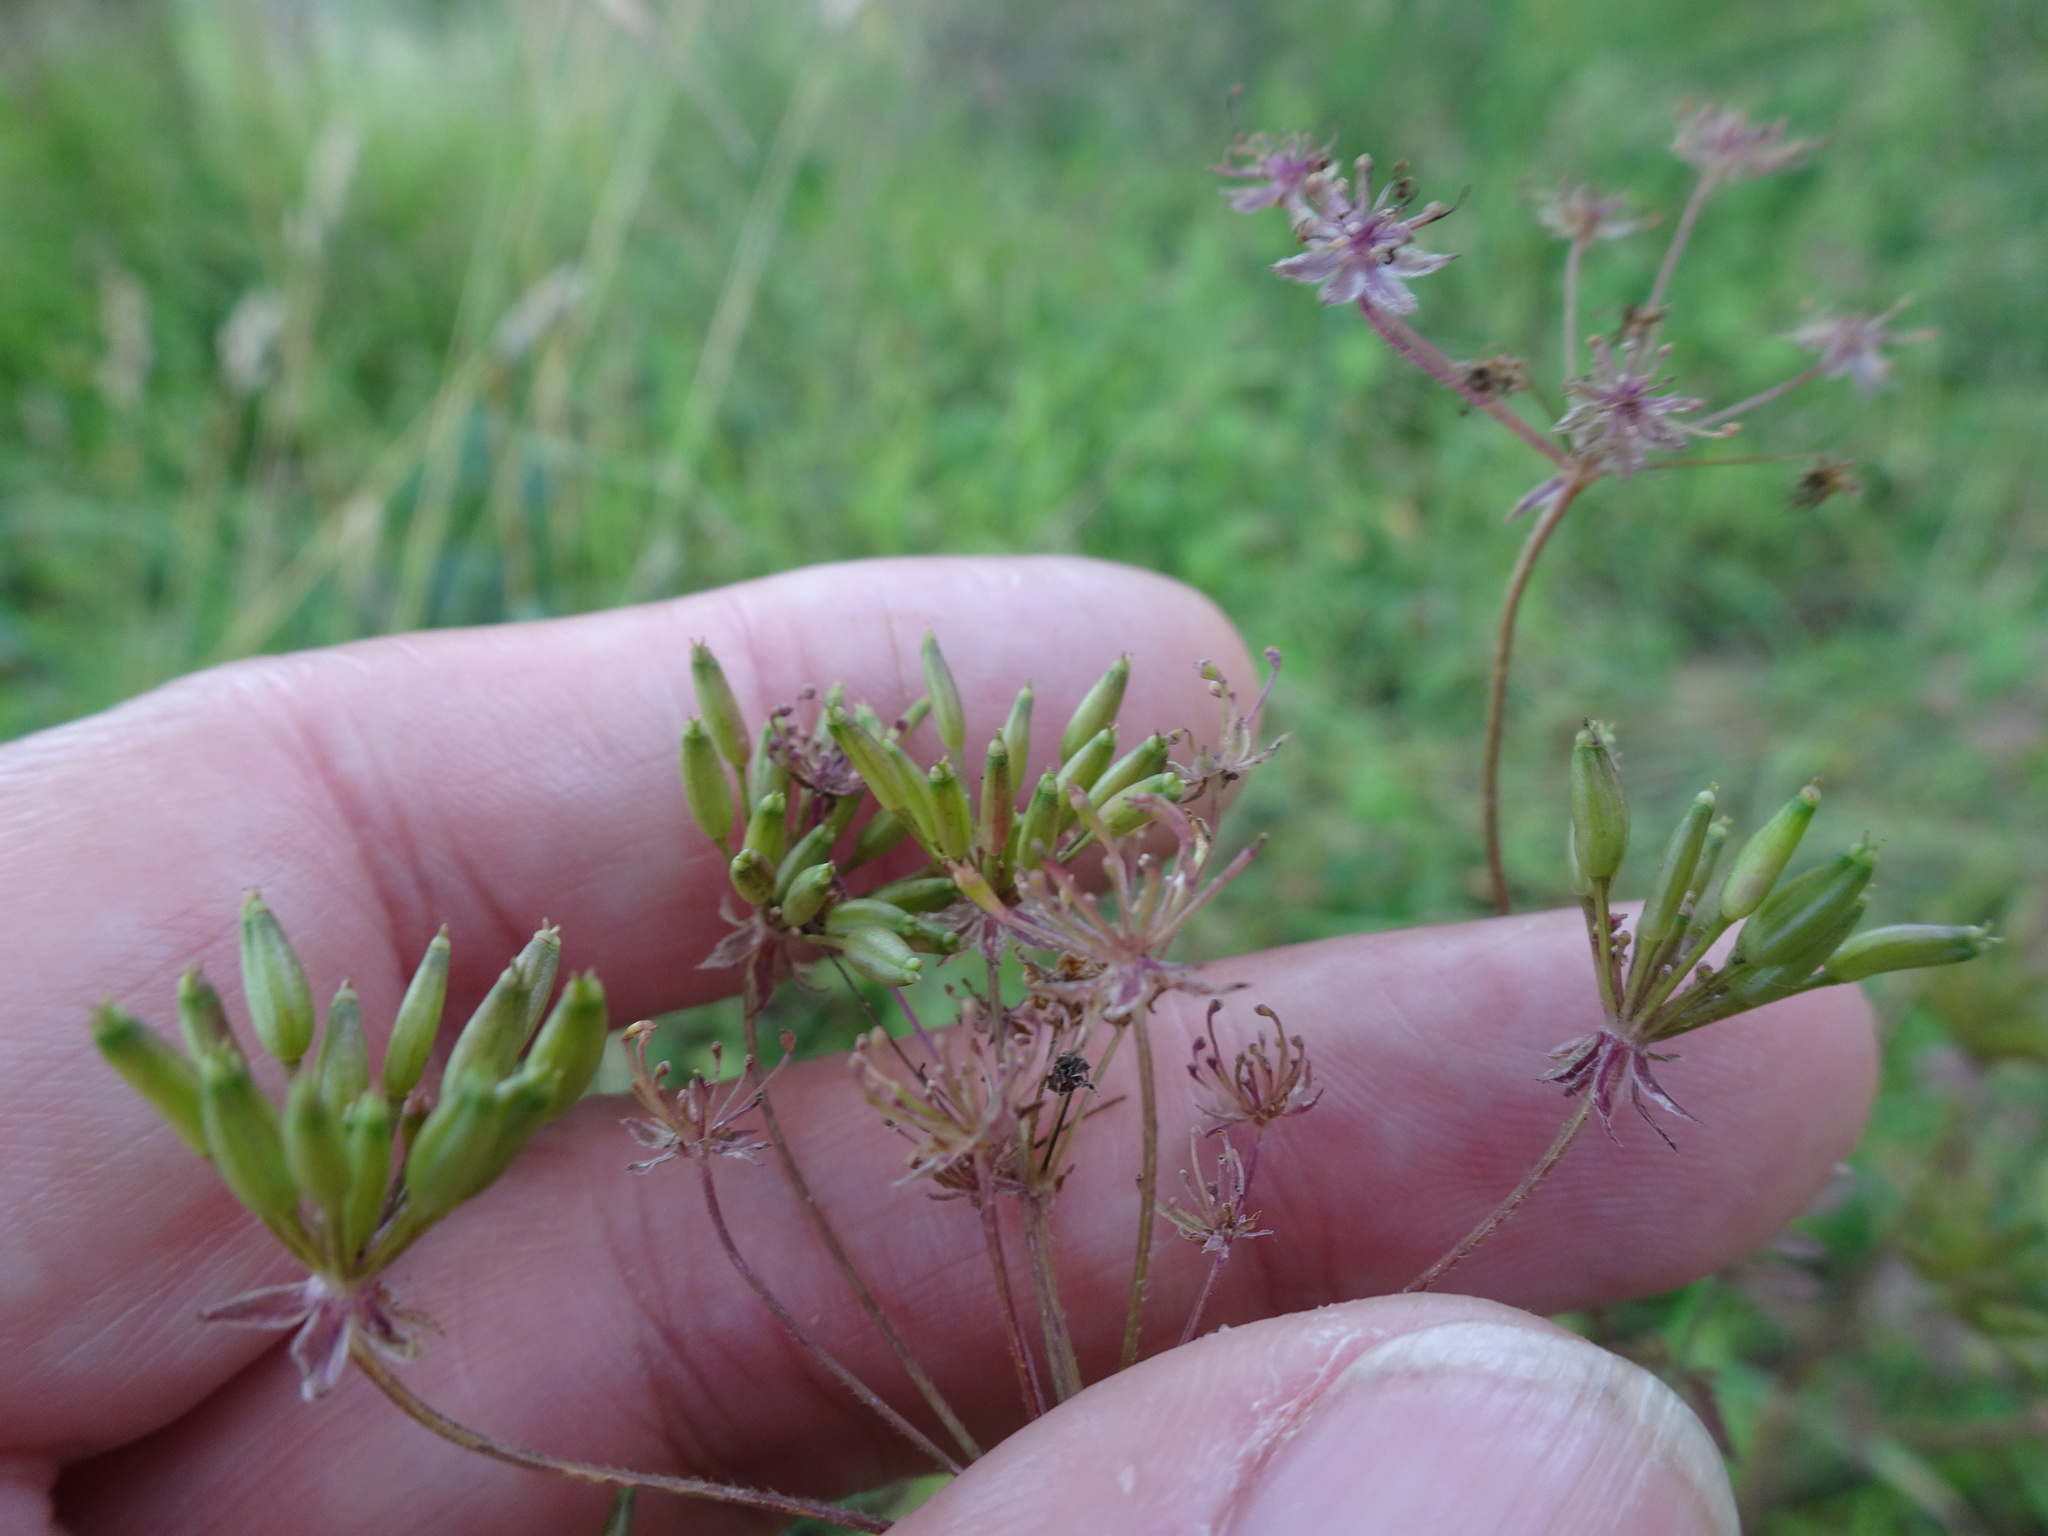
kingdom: Plantae
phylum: Tracheophyta
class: Magnoliopsida
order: Apiales
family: Apiaceae
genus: Chaerophyllum
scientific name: Chaerophyllum temulum
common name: Rough chervil
